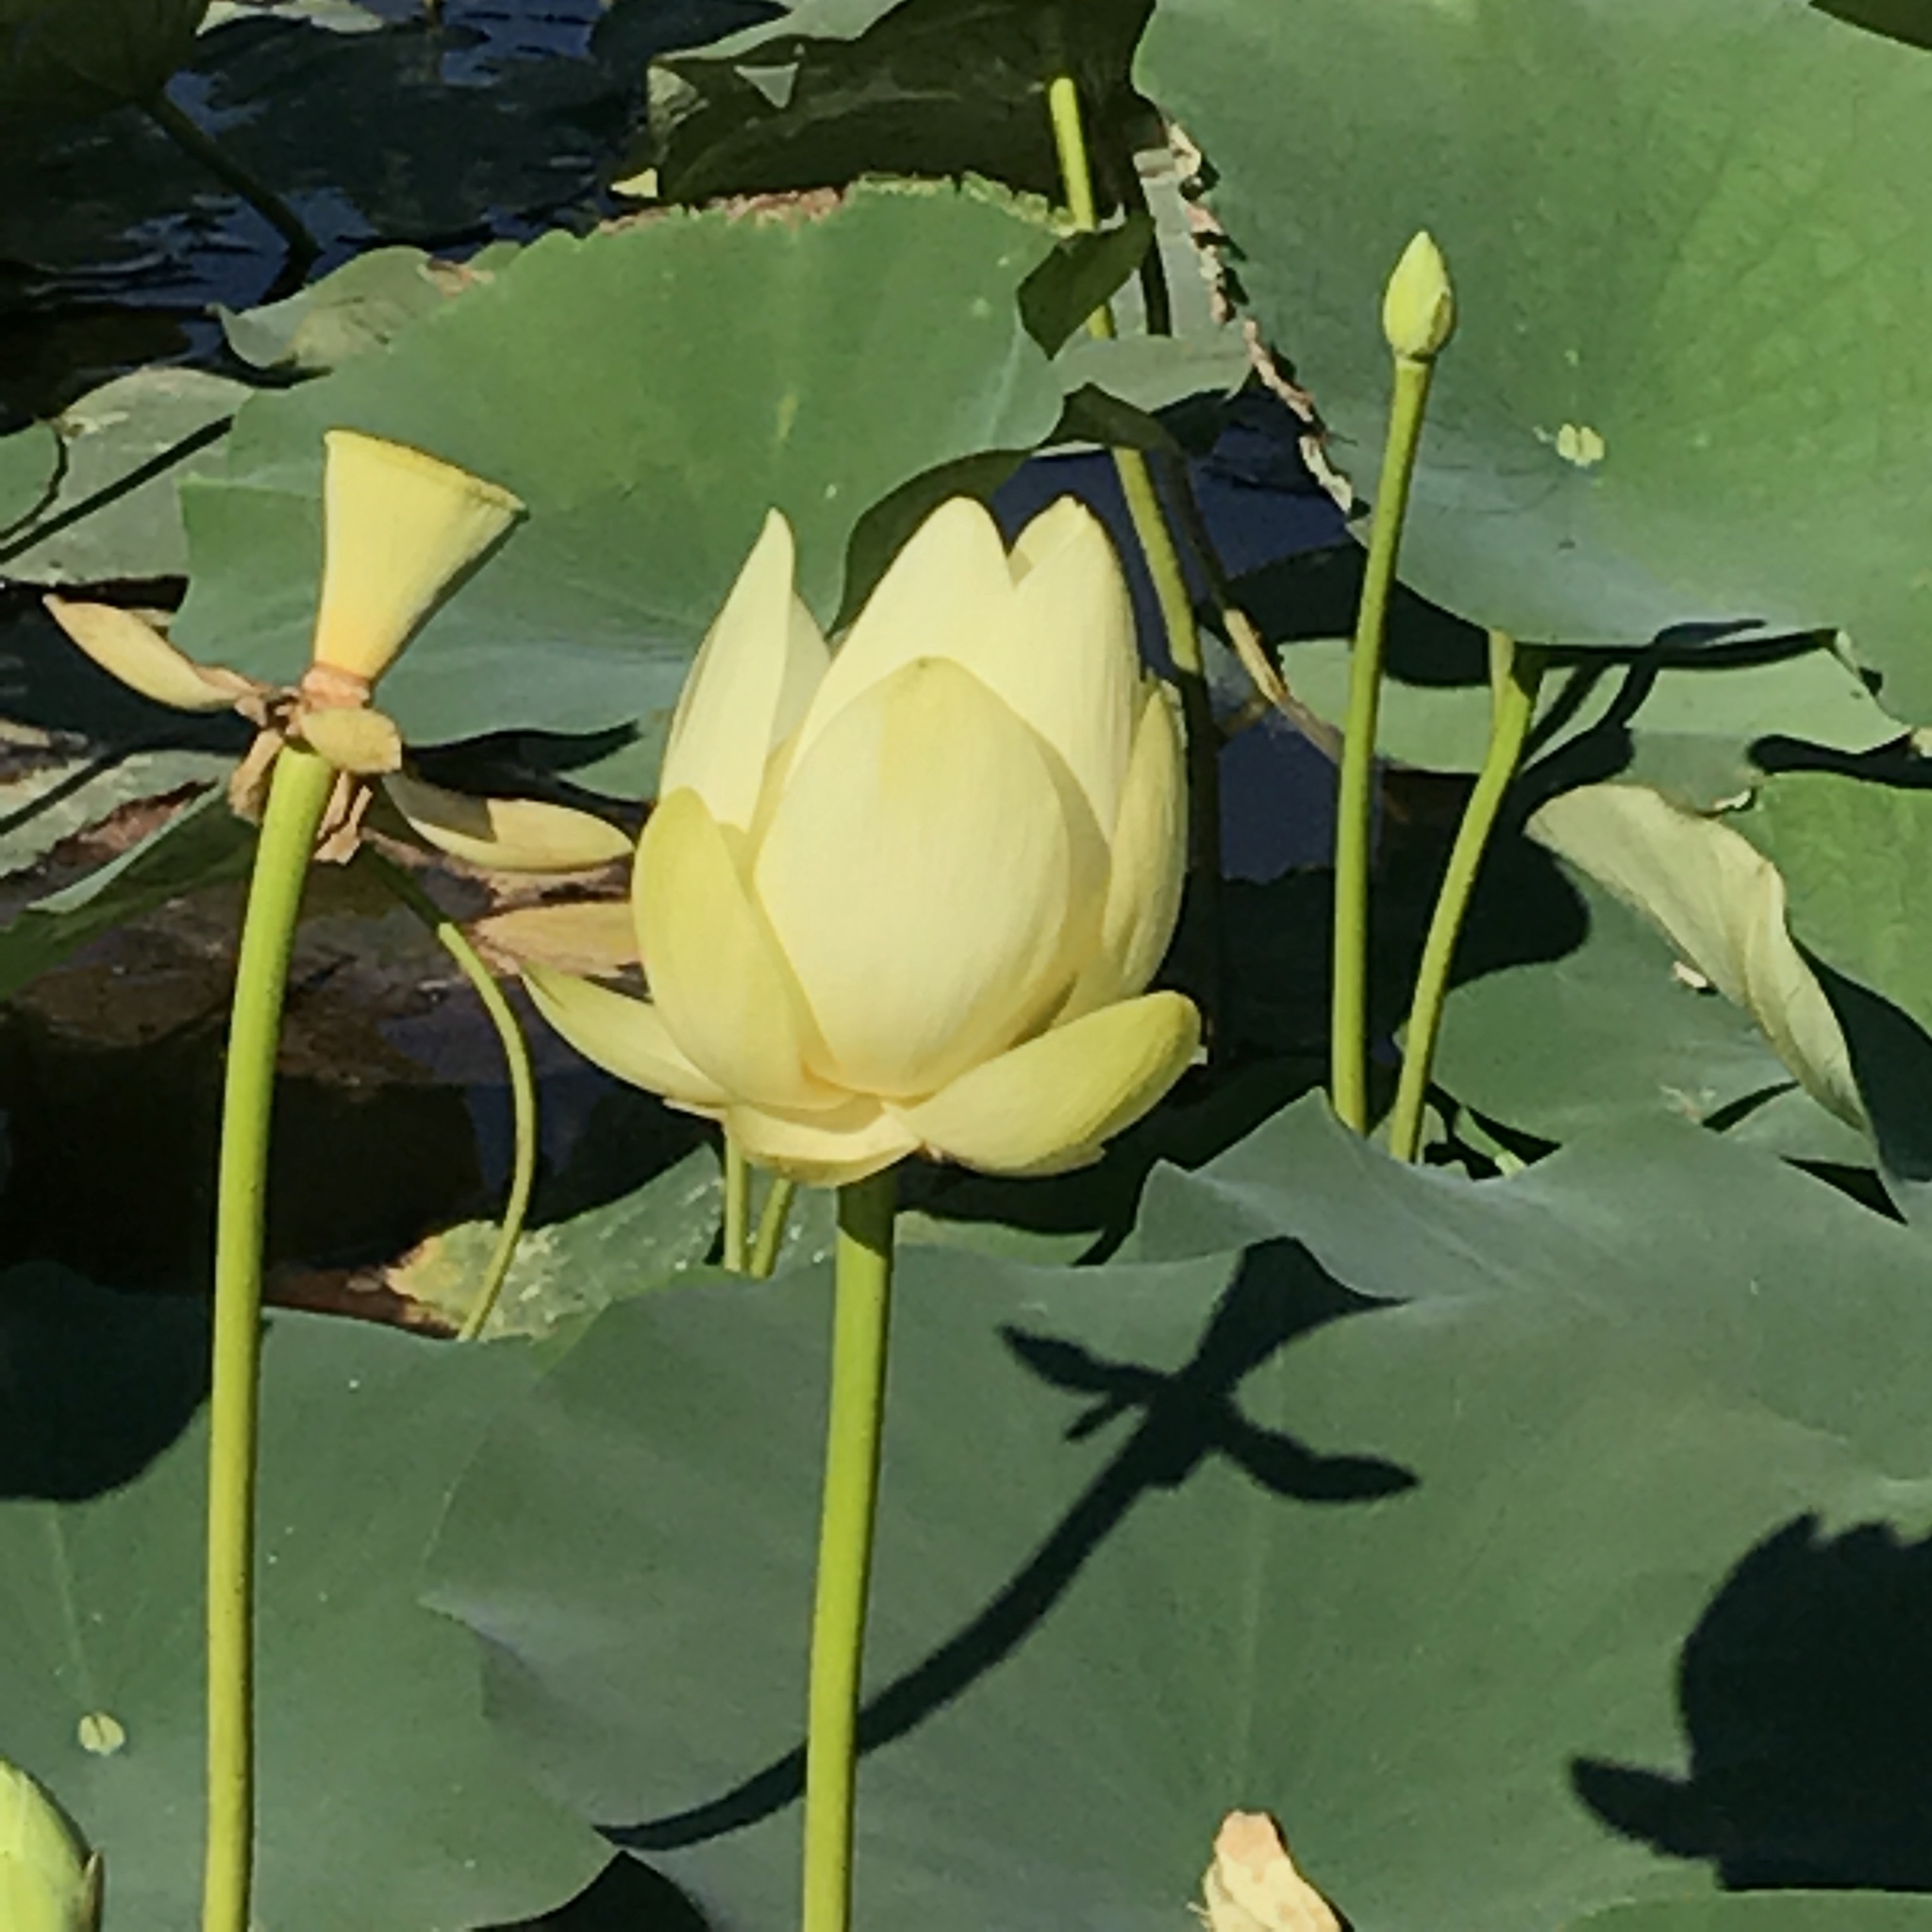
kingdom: Plantae
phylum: Tracheophyta
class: Magnoliopsida
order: Proteales
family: Nelumbonaceae
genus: Nelumbo
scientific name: Nelumbo lutea
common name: American lotus
